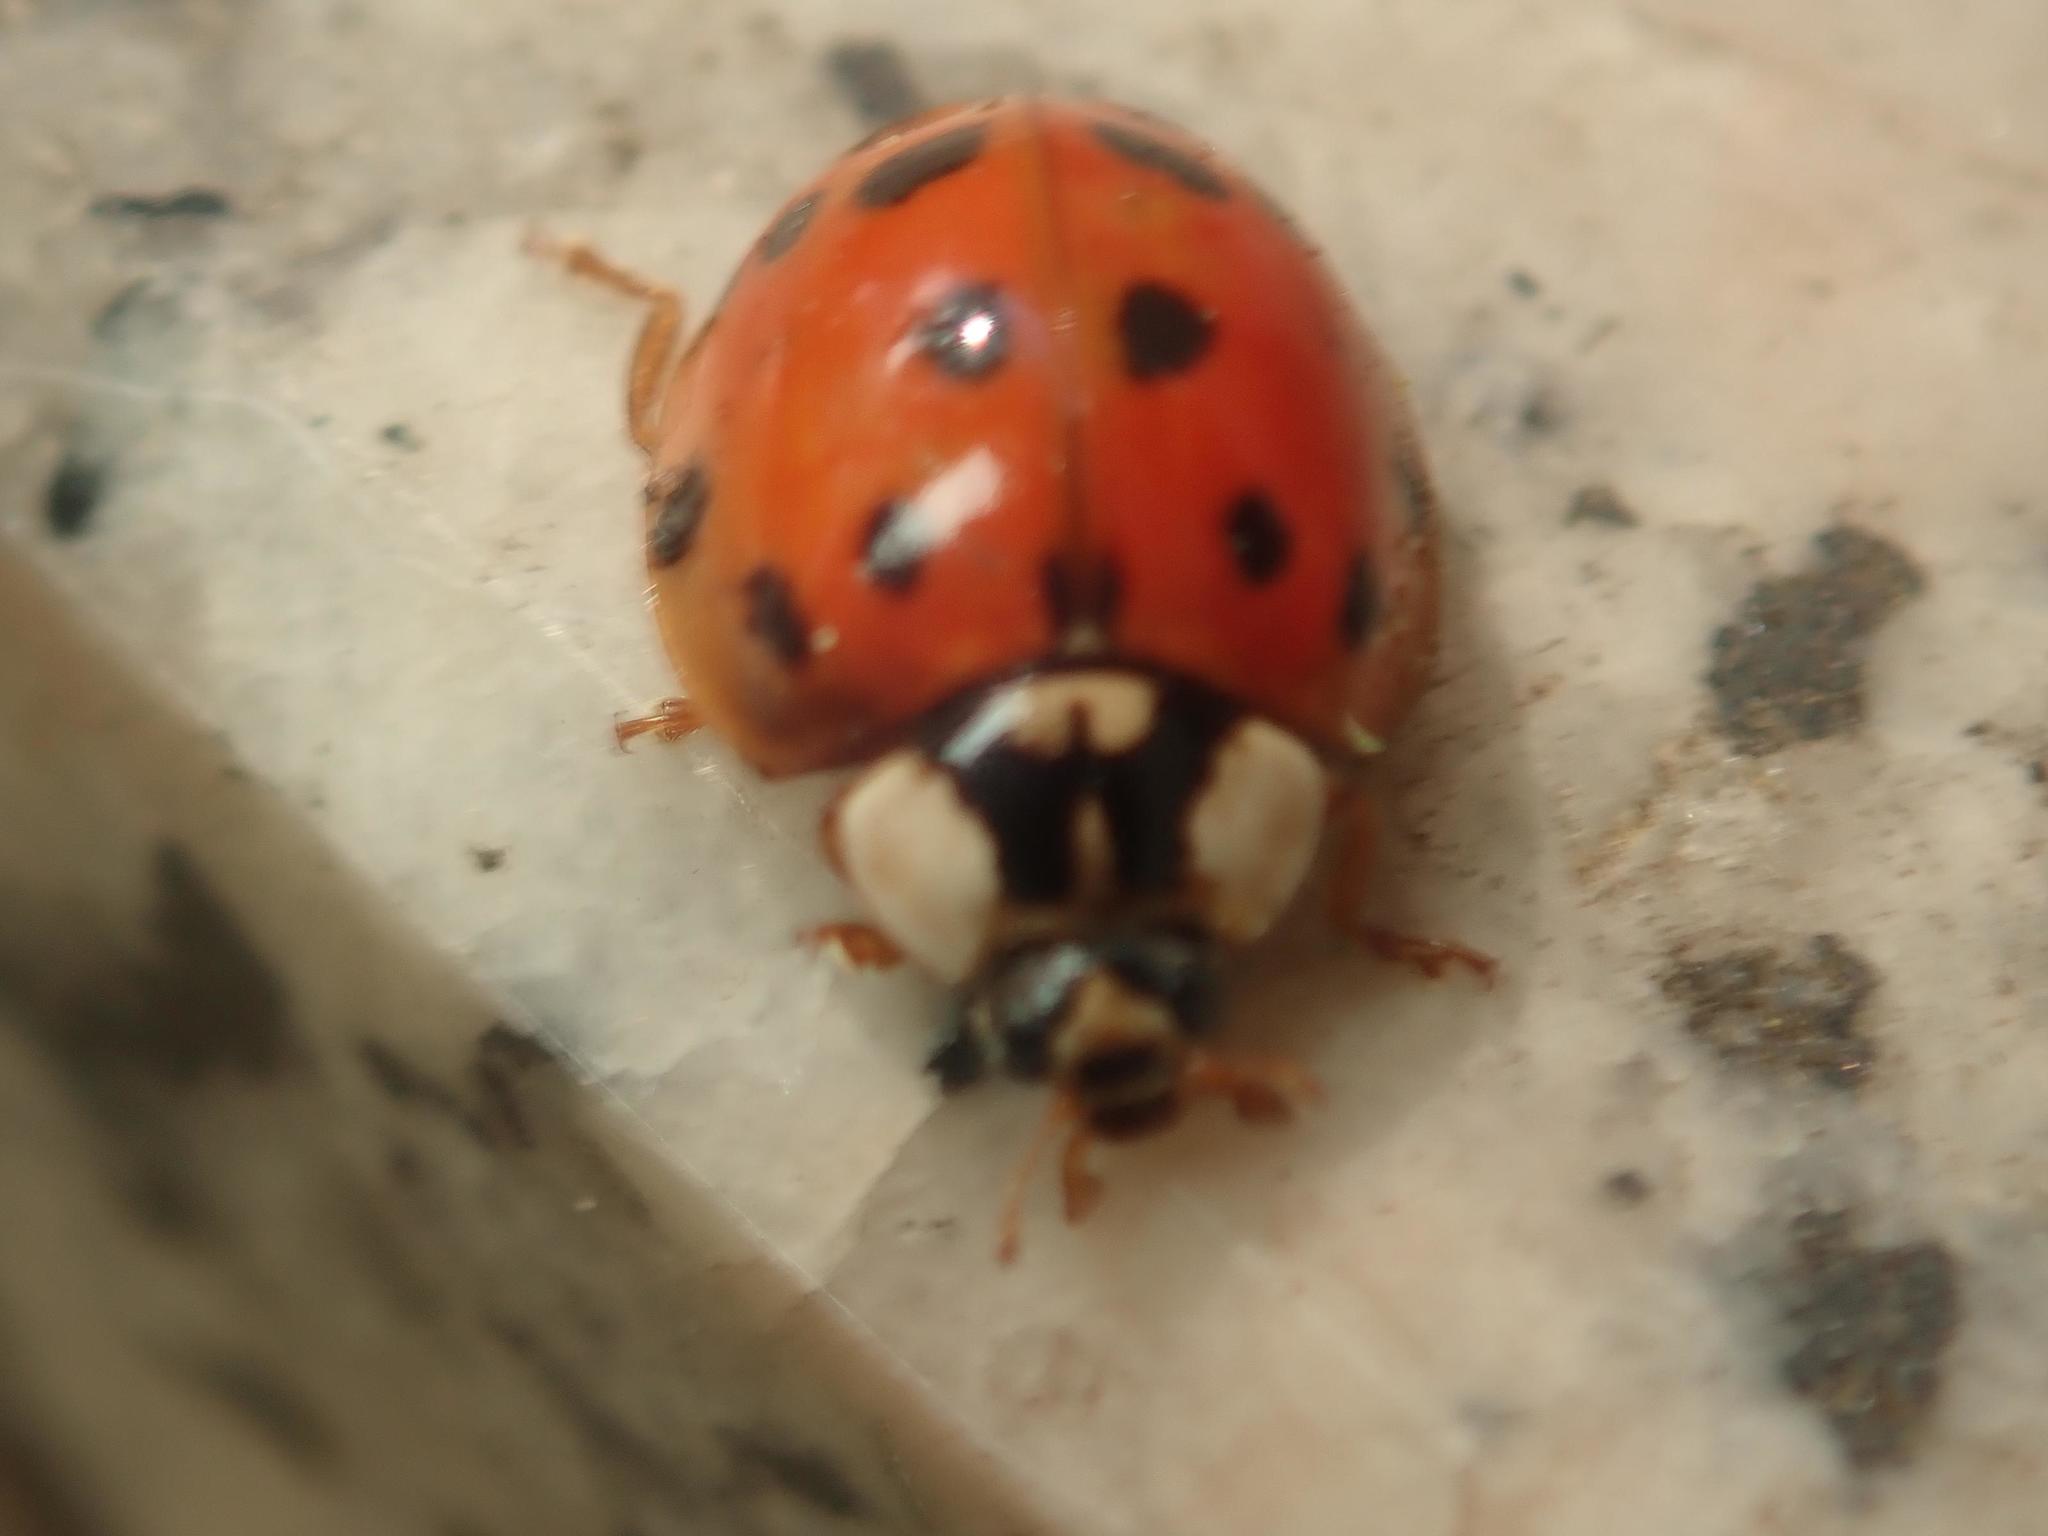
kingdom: Animalia
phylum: Arthropoda
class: Insecta
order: Coleoptera
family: Coccinellidae
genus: Harmonia
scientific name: Harmonia axyridis
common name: Harlequin ladybird
